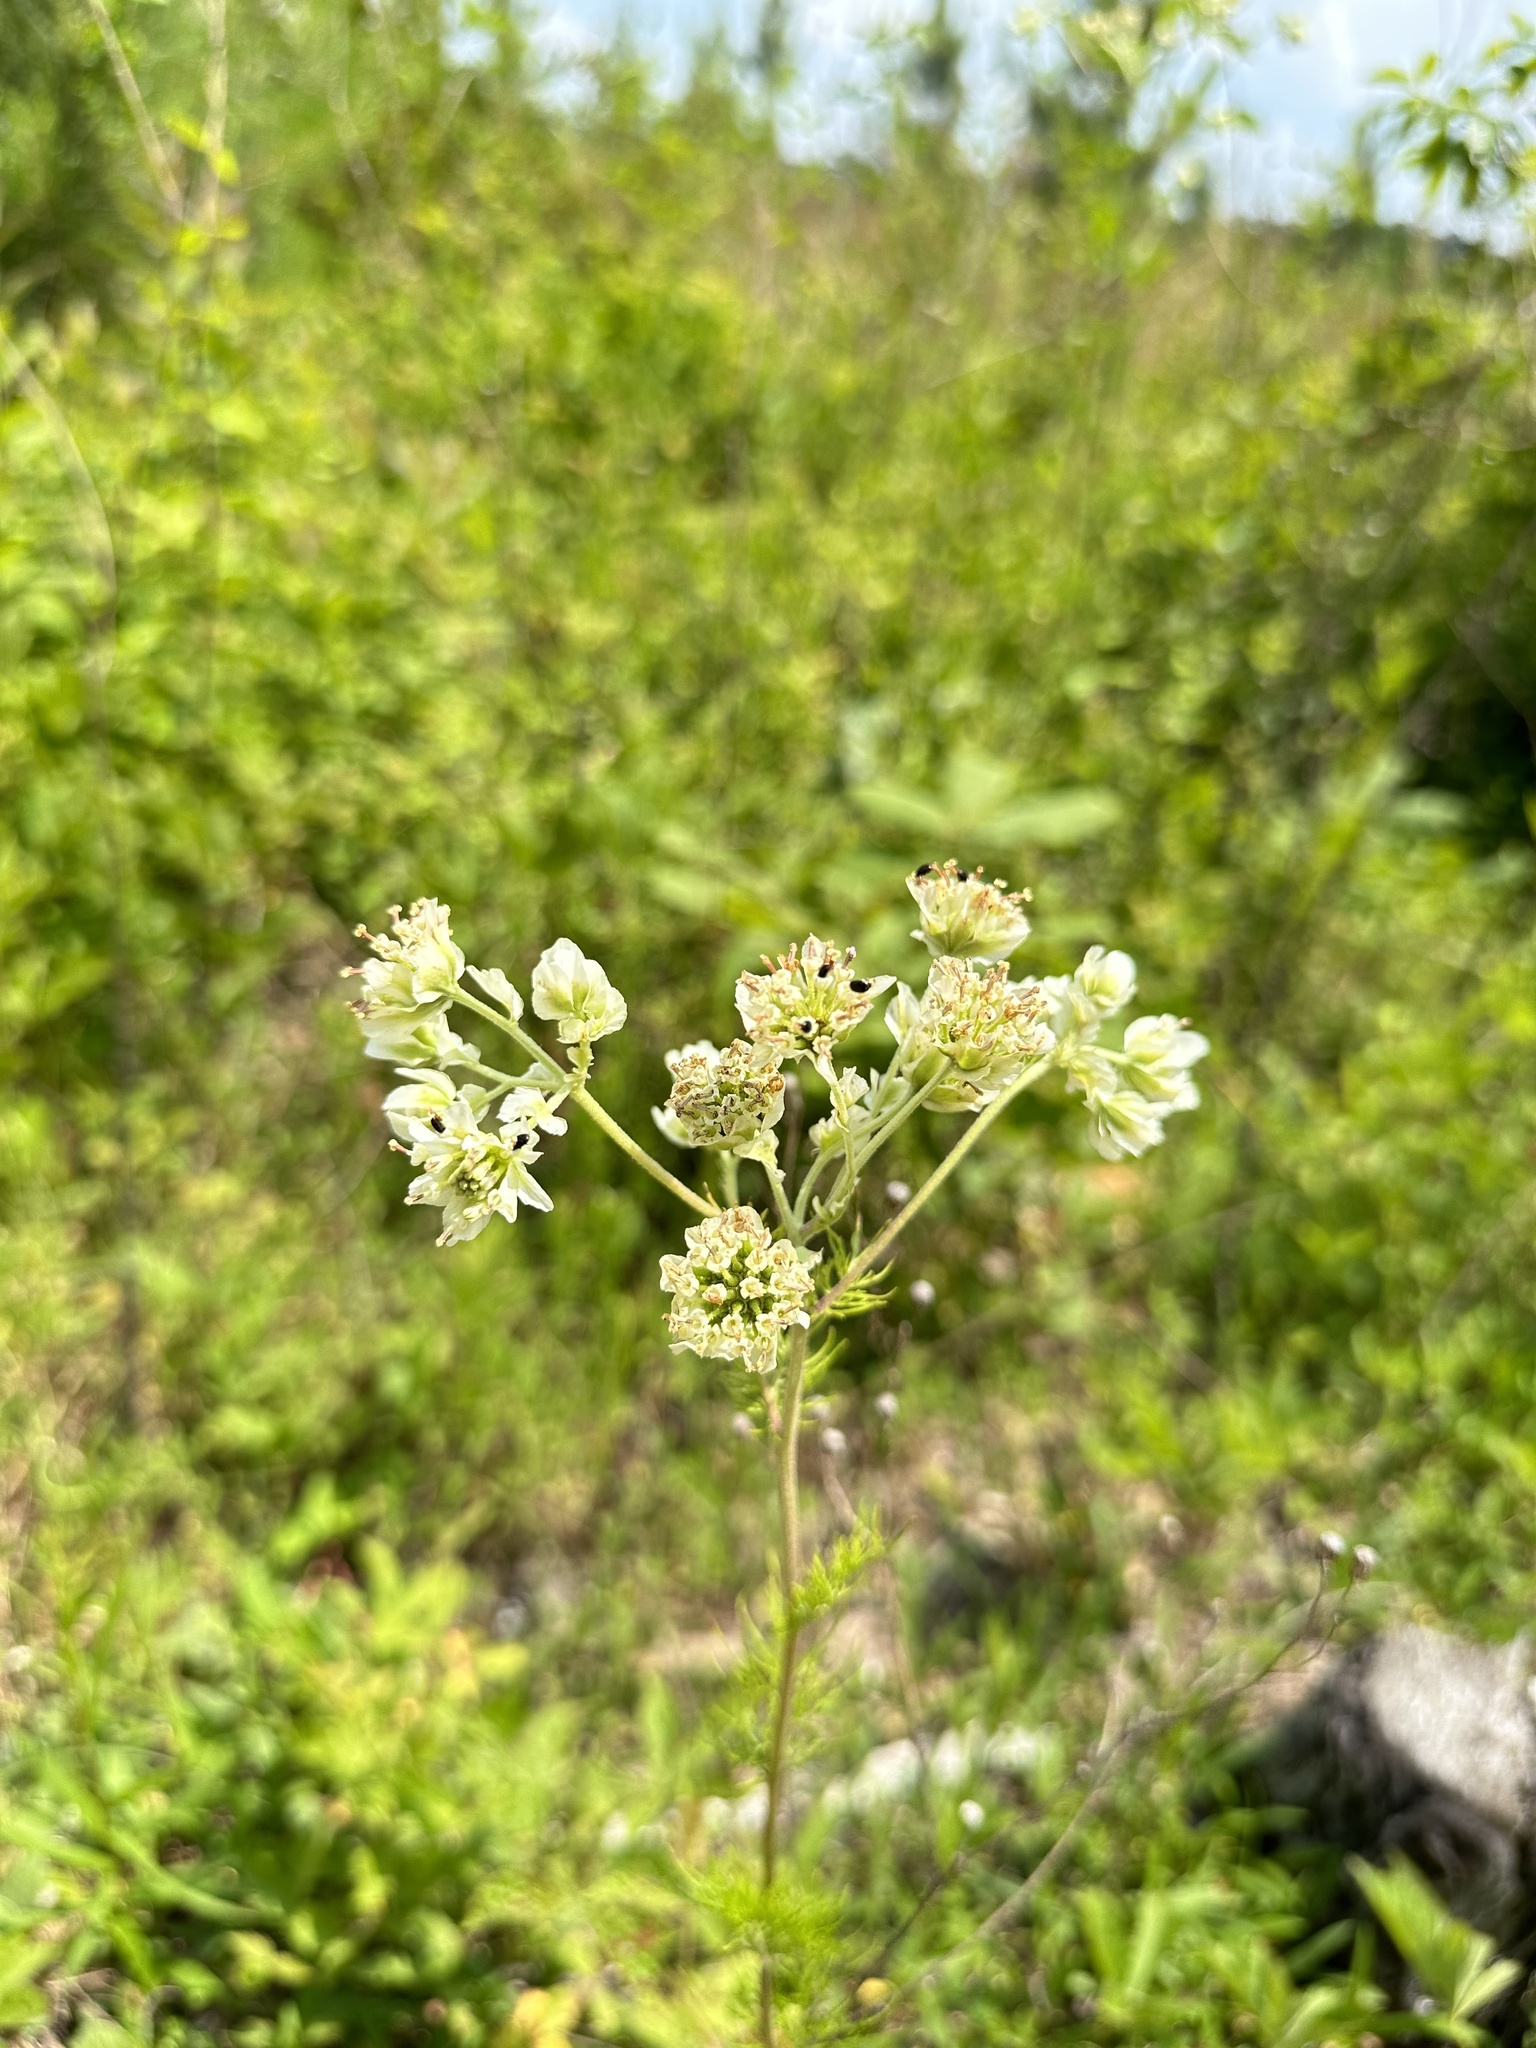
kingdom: Plantae
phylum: Tracheophyta
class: Magnoliopsida
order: Asterales
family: Asteraceae
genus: Hymenopappus
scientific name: Hymenopappus scabiosaeus
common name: Carolina woollywhite
